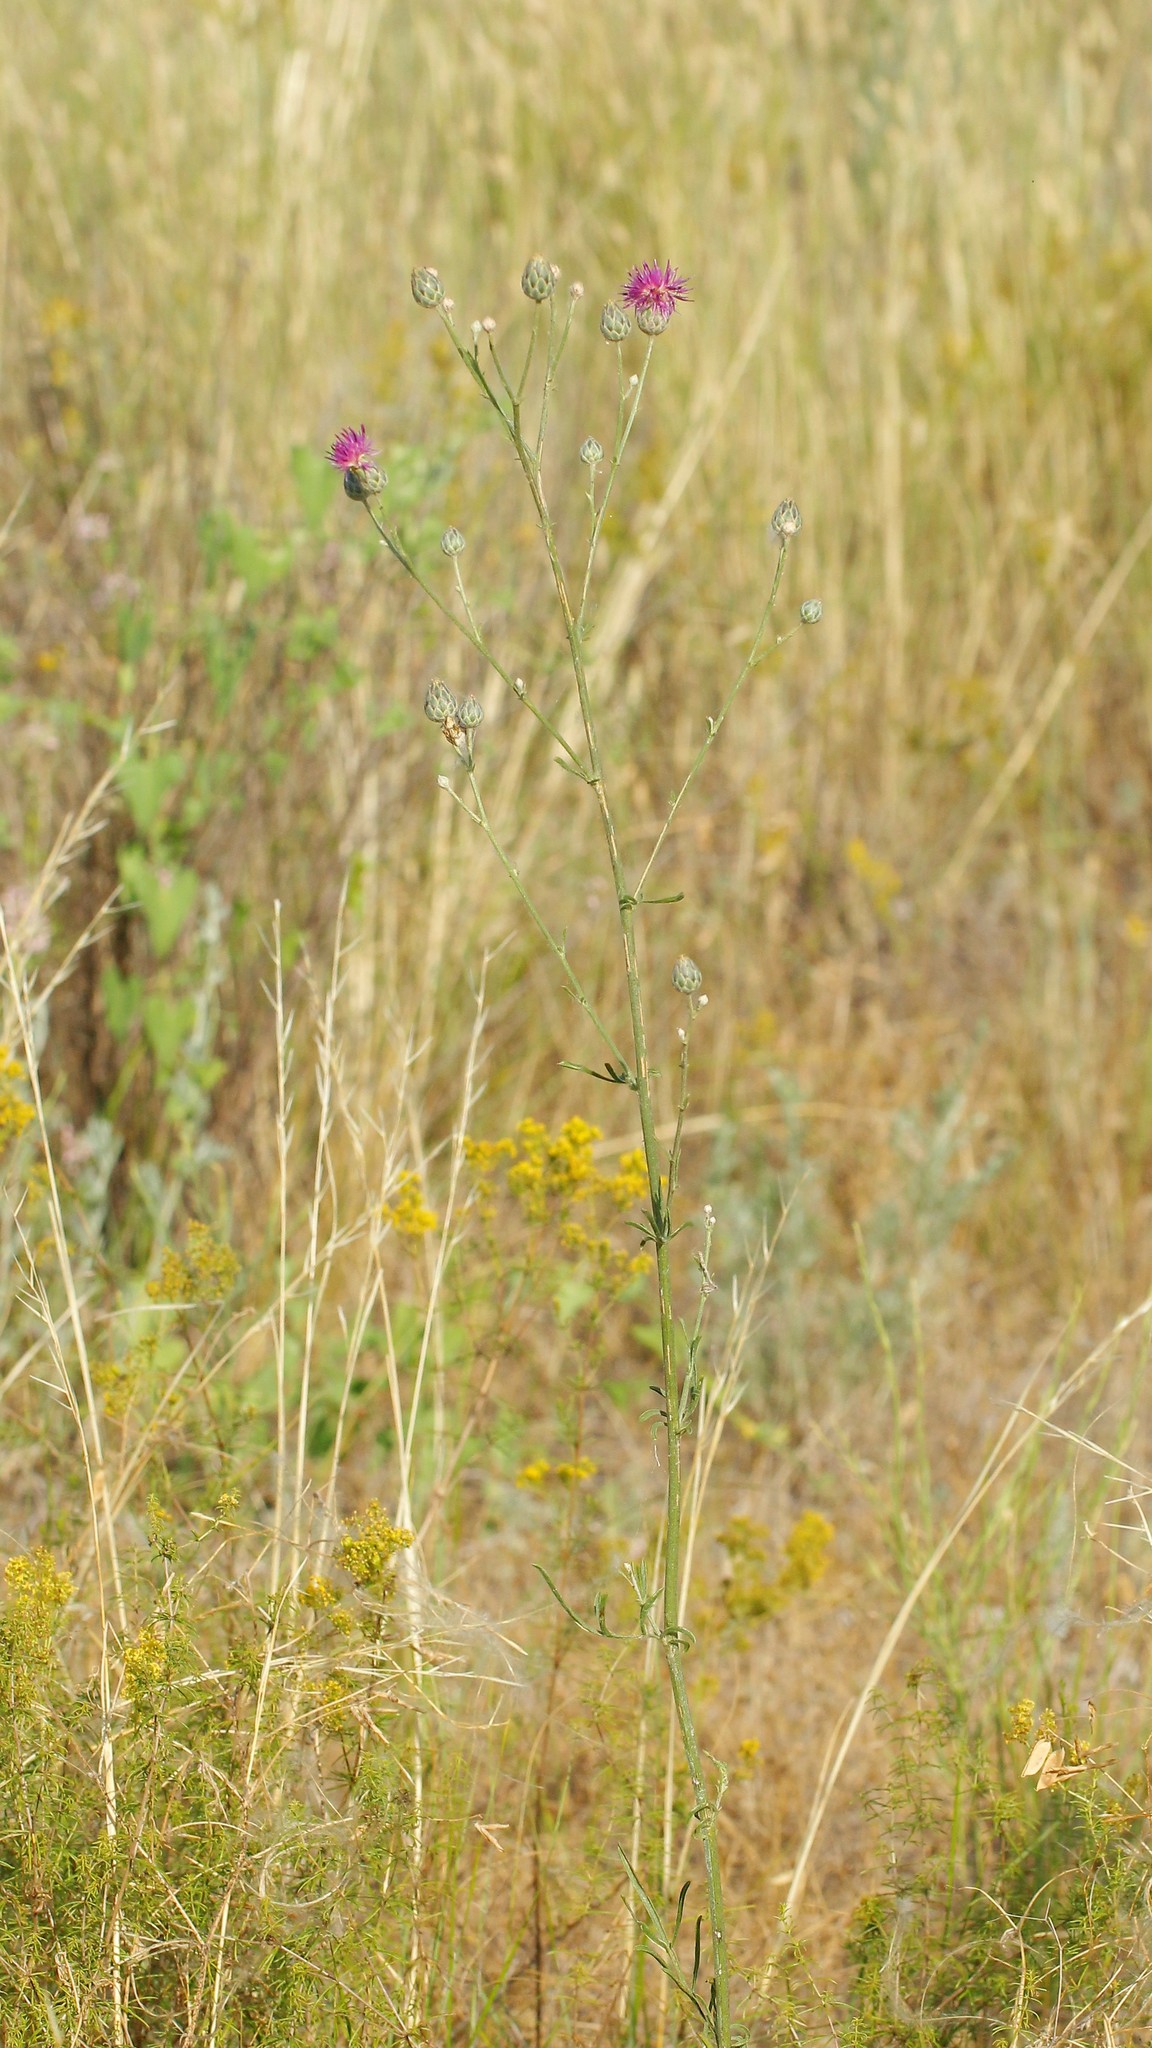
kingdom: Plantae
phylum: Tracheophyta
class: Magnoliopsida
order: Asterales
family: Asteraceae
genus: Centaurea
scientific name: Centaurea adpressa
